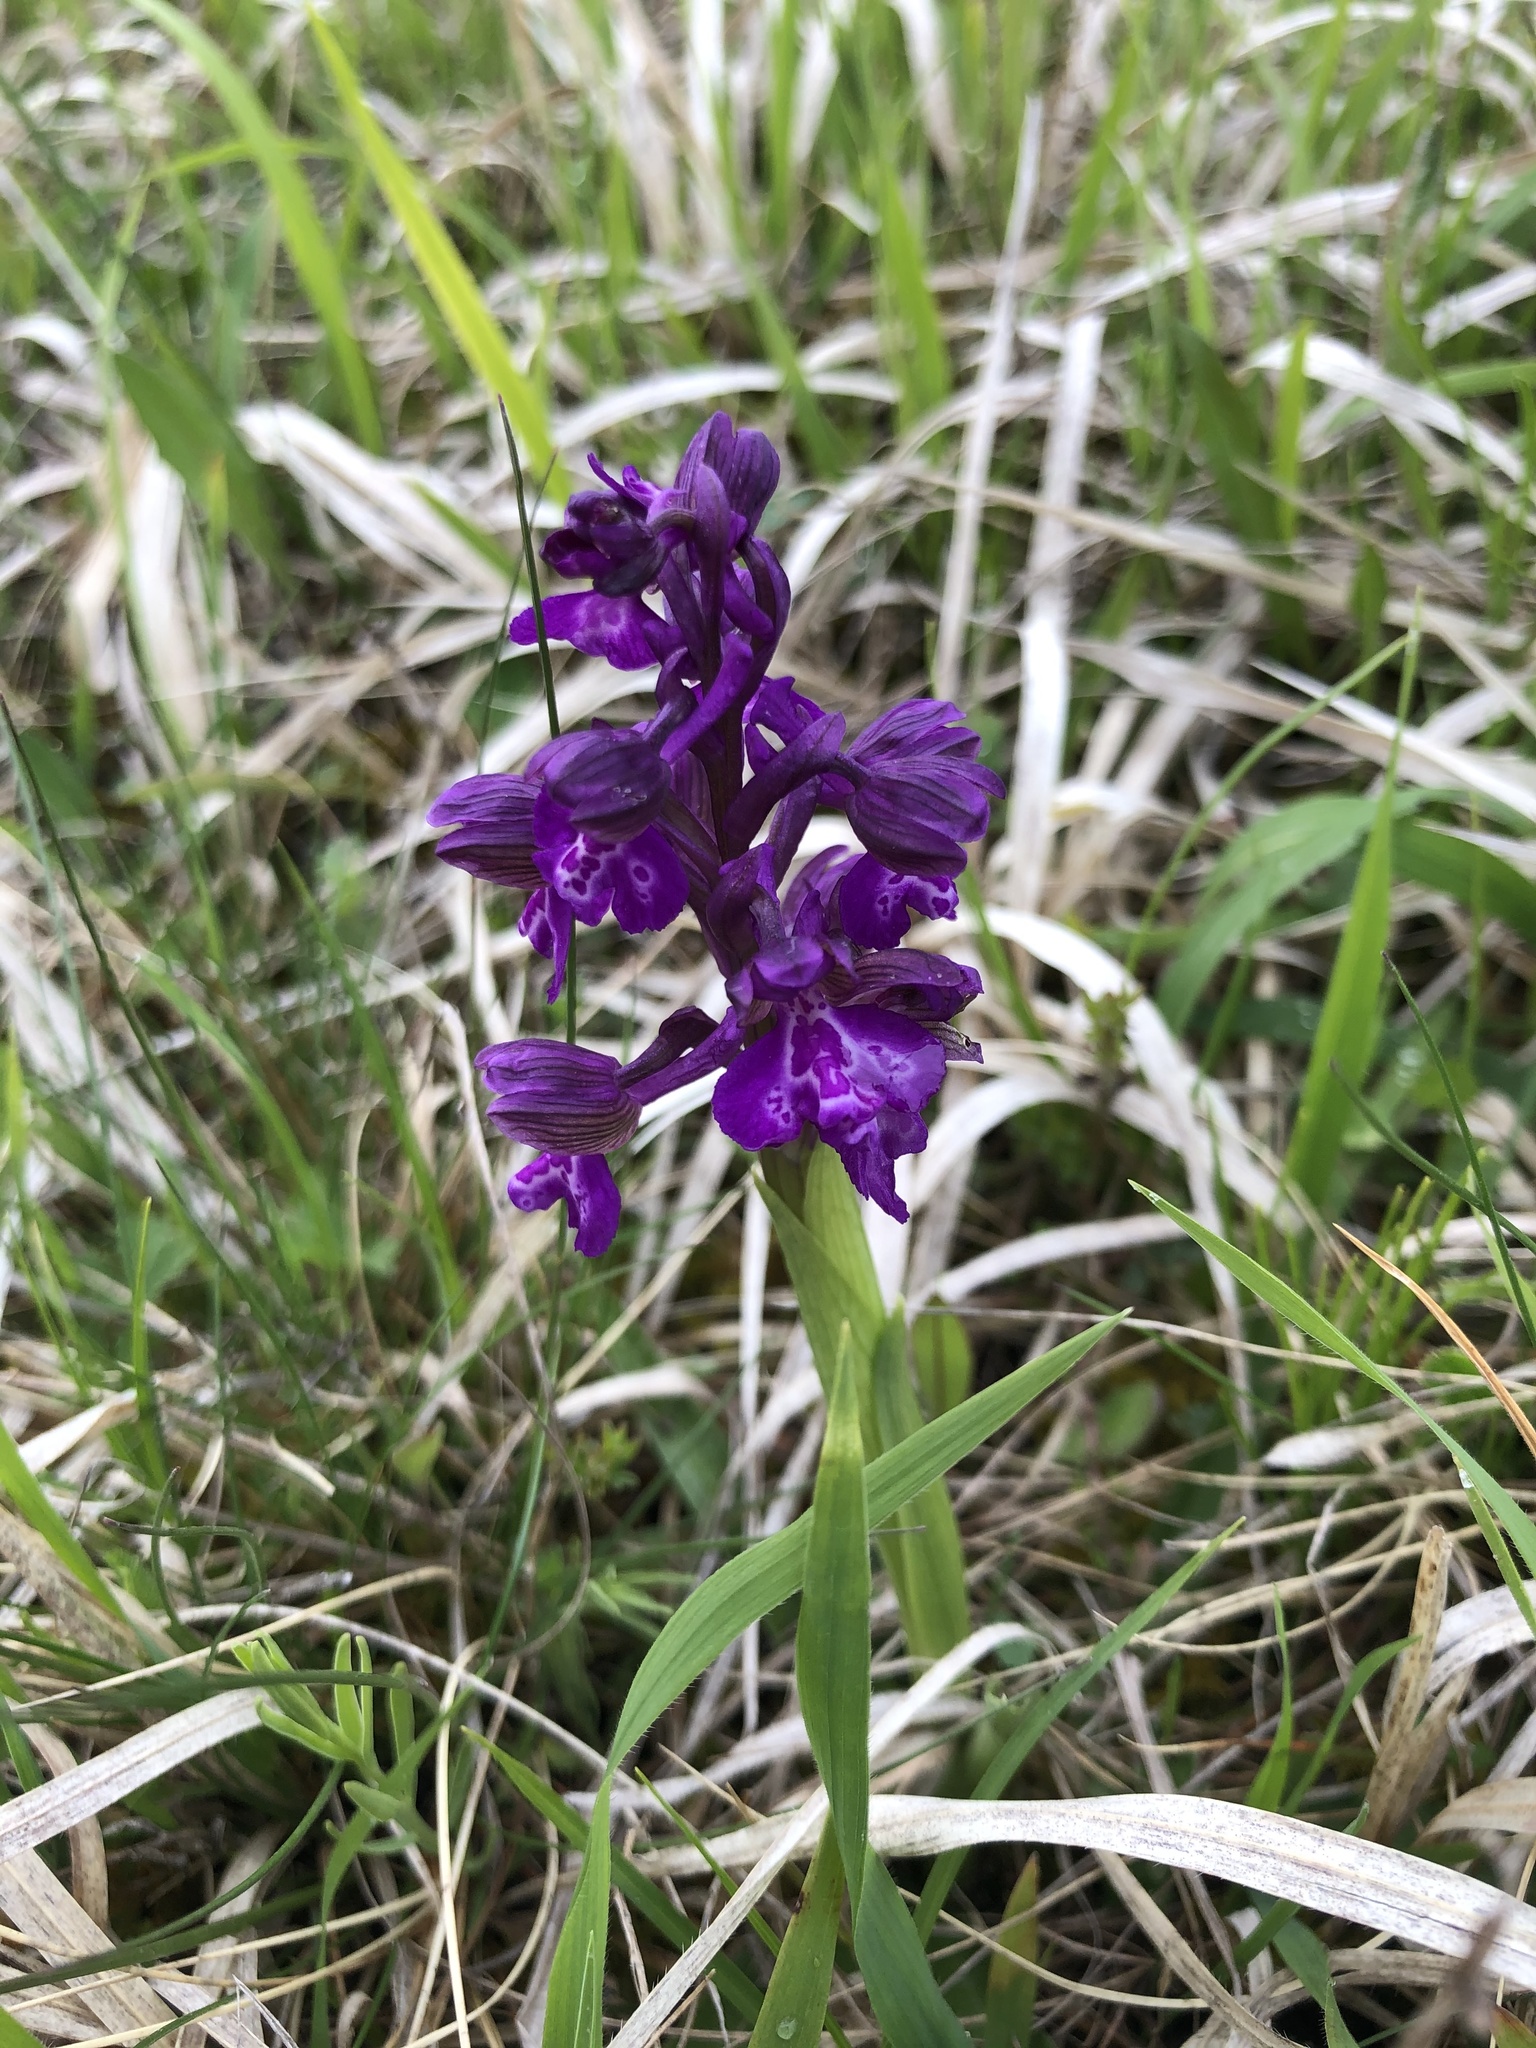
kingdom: Plantae
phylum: Tracheophyta
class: Liliopsida
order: Asparagales
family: Orchidaceae
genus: Anacamptis
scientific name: Anacamptis morio
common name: Green-winged orchid
